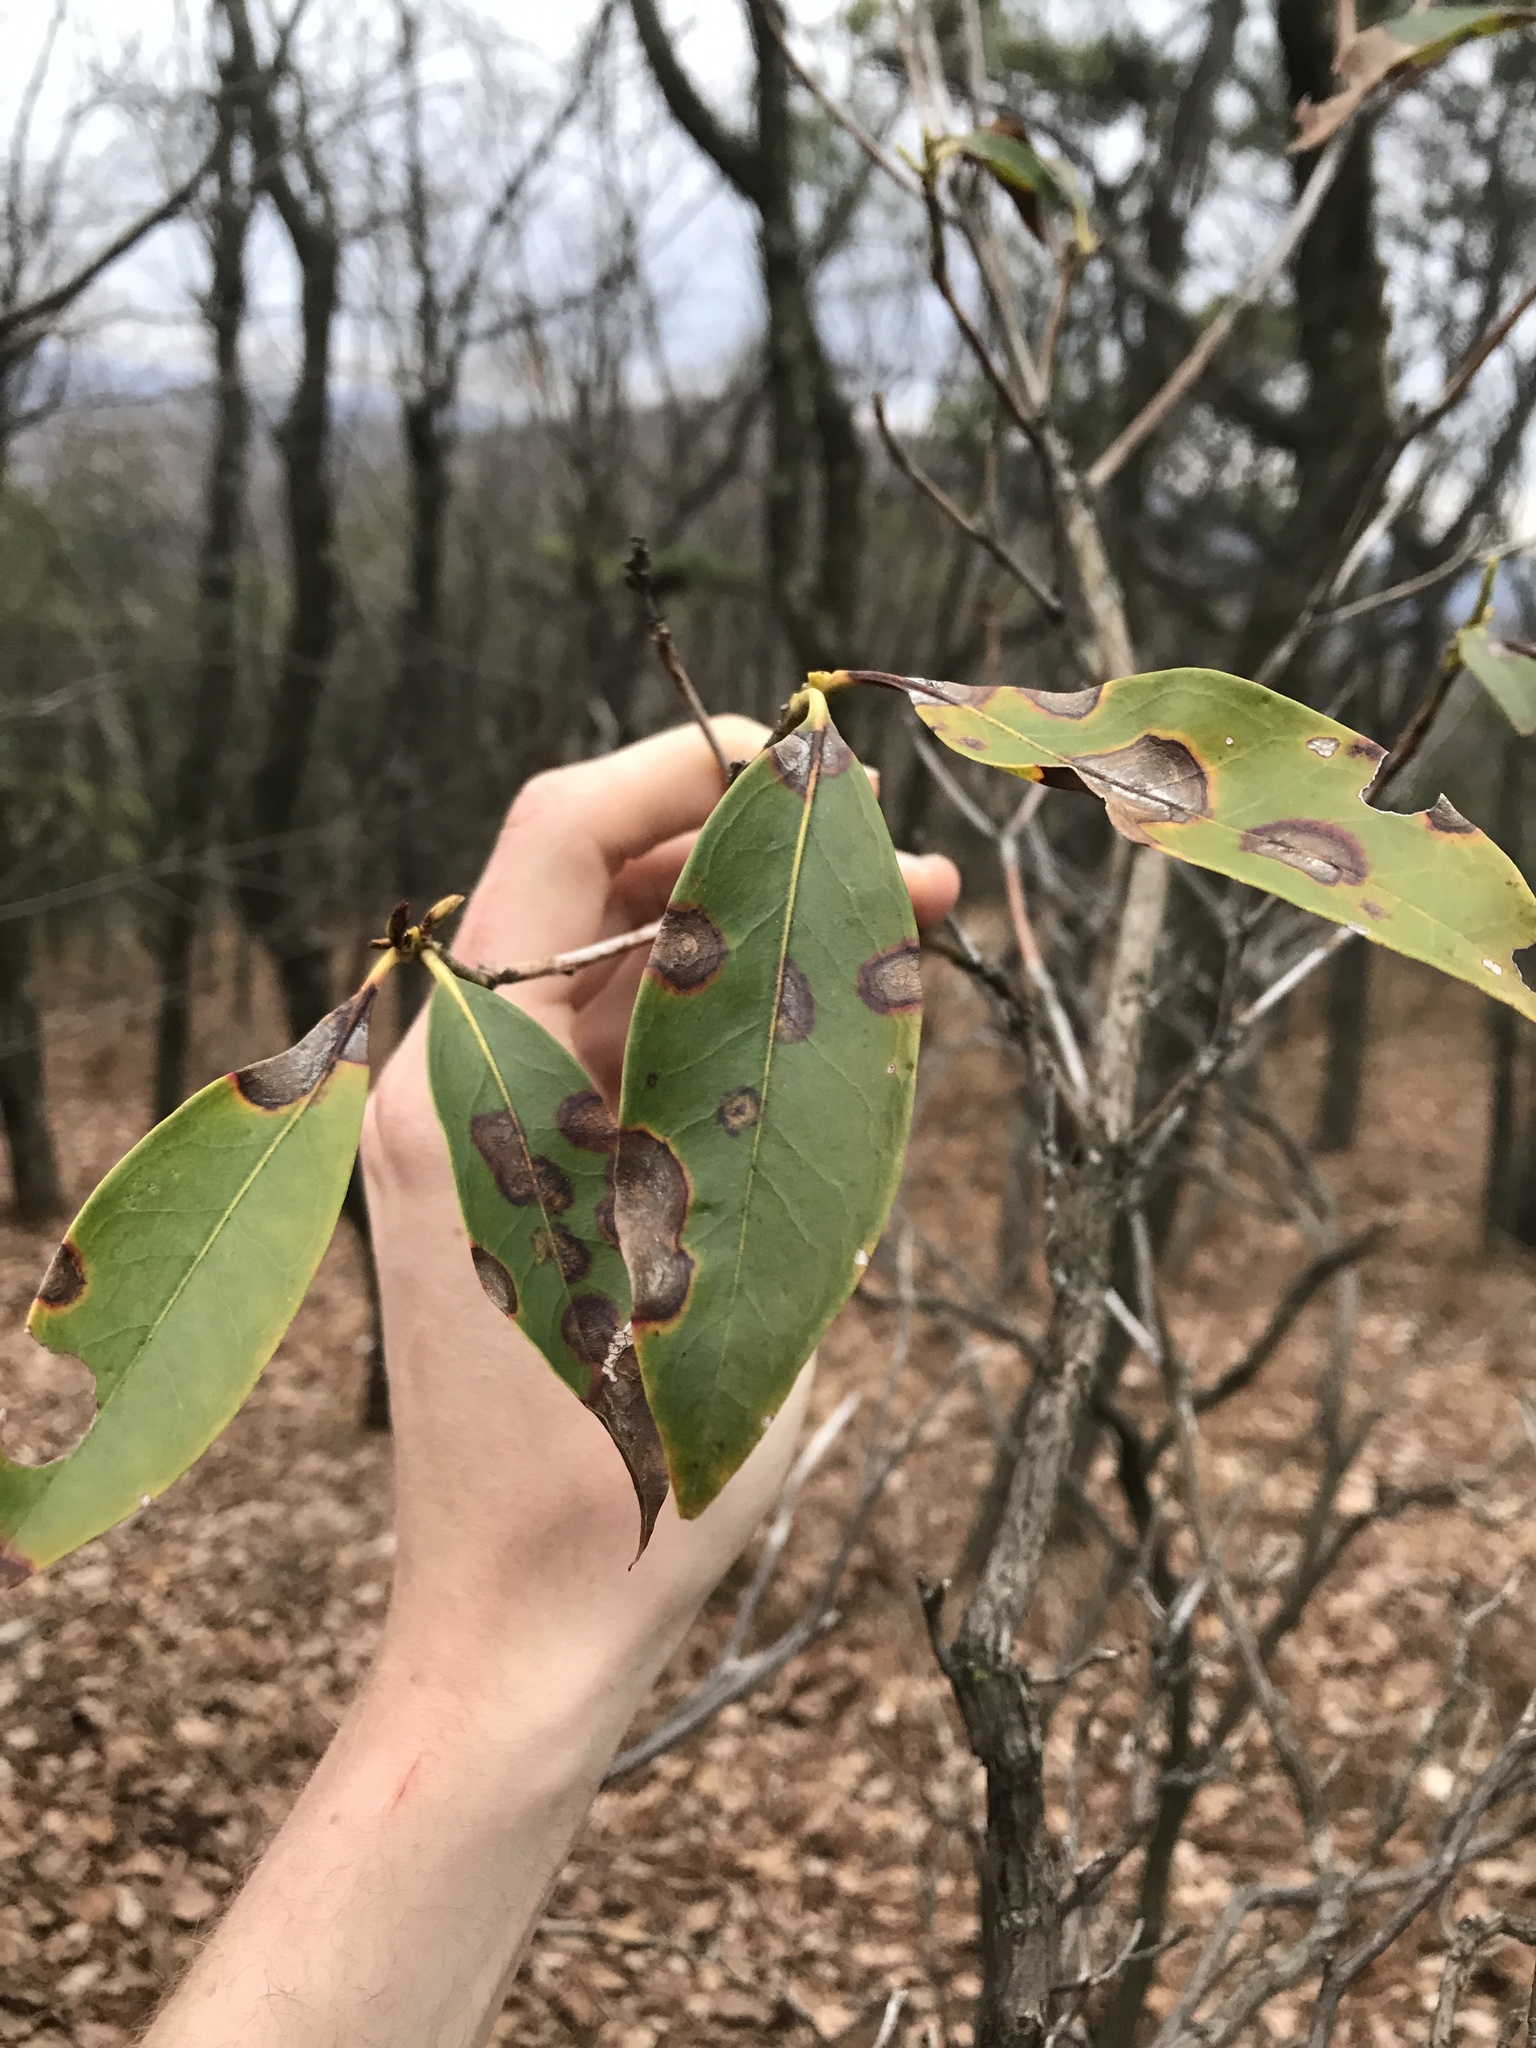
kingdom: Fungi
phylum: Ascomycota
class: Sordariomycetes
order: Diaporthales
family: Diaporthaceae
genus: Diaporthe
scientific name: Diaporthe kalmiae
